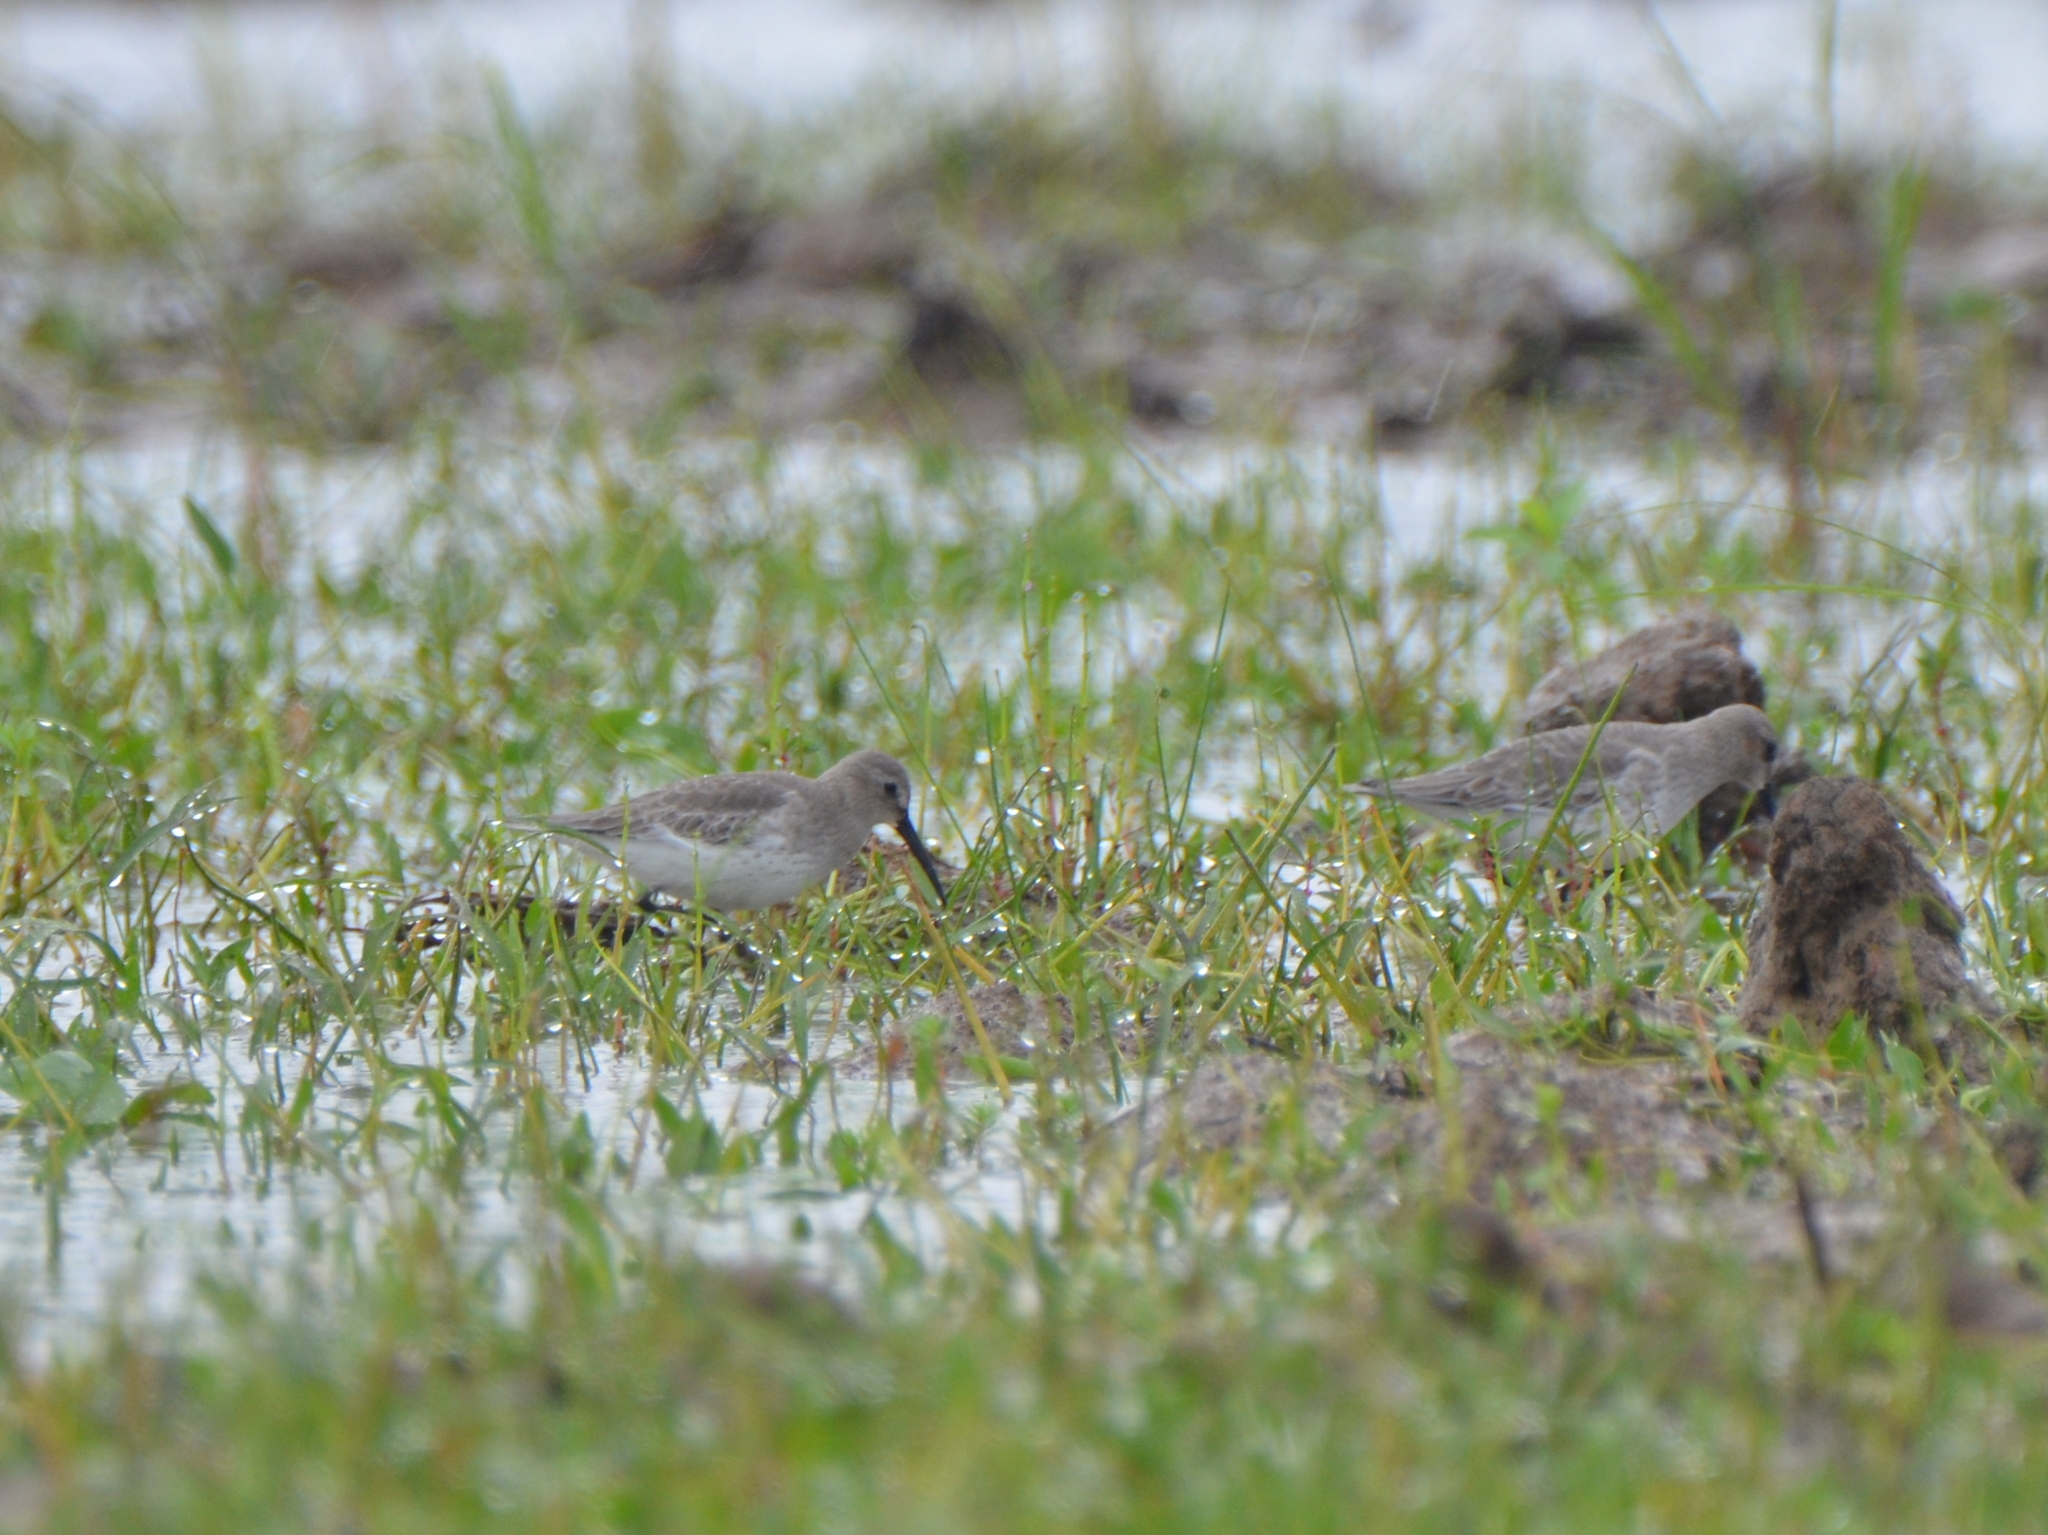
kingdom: Animalia
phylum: Chordata
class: Aves
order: Charadriiformes
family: Scolopacidae
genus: Calidris
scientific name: Calidris alpina
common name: Dunlin
